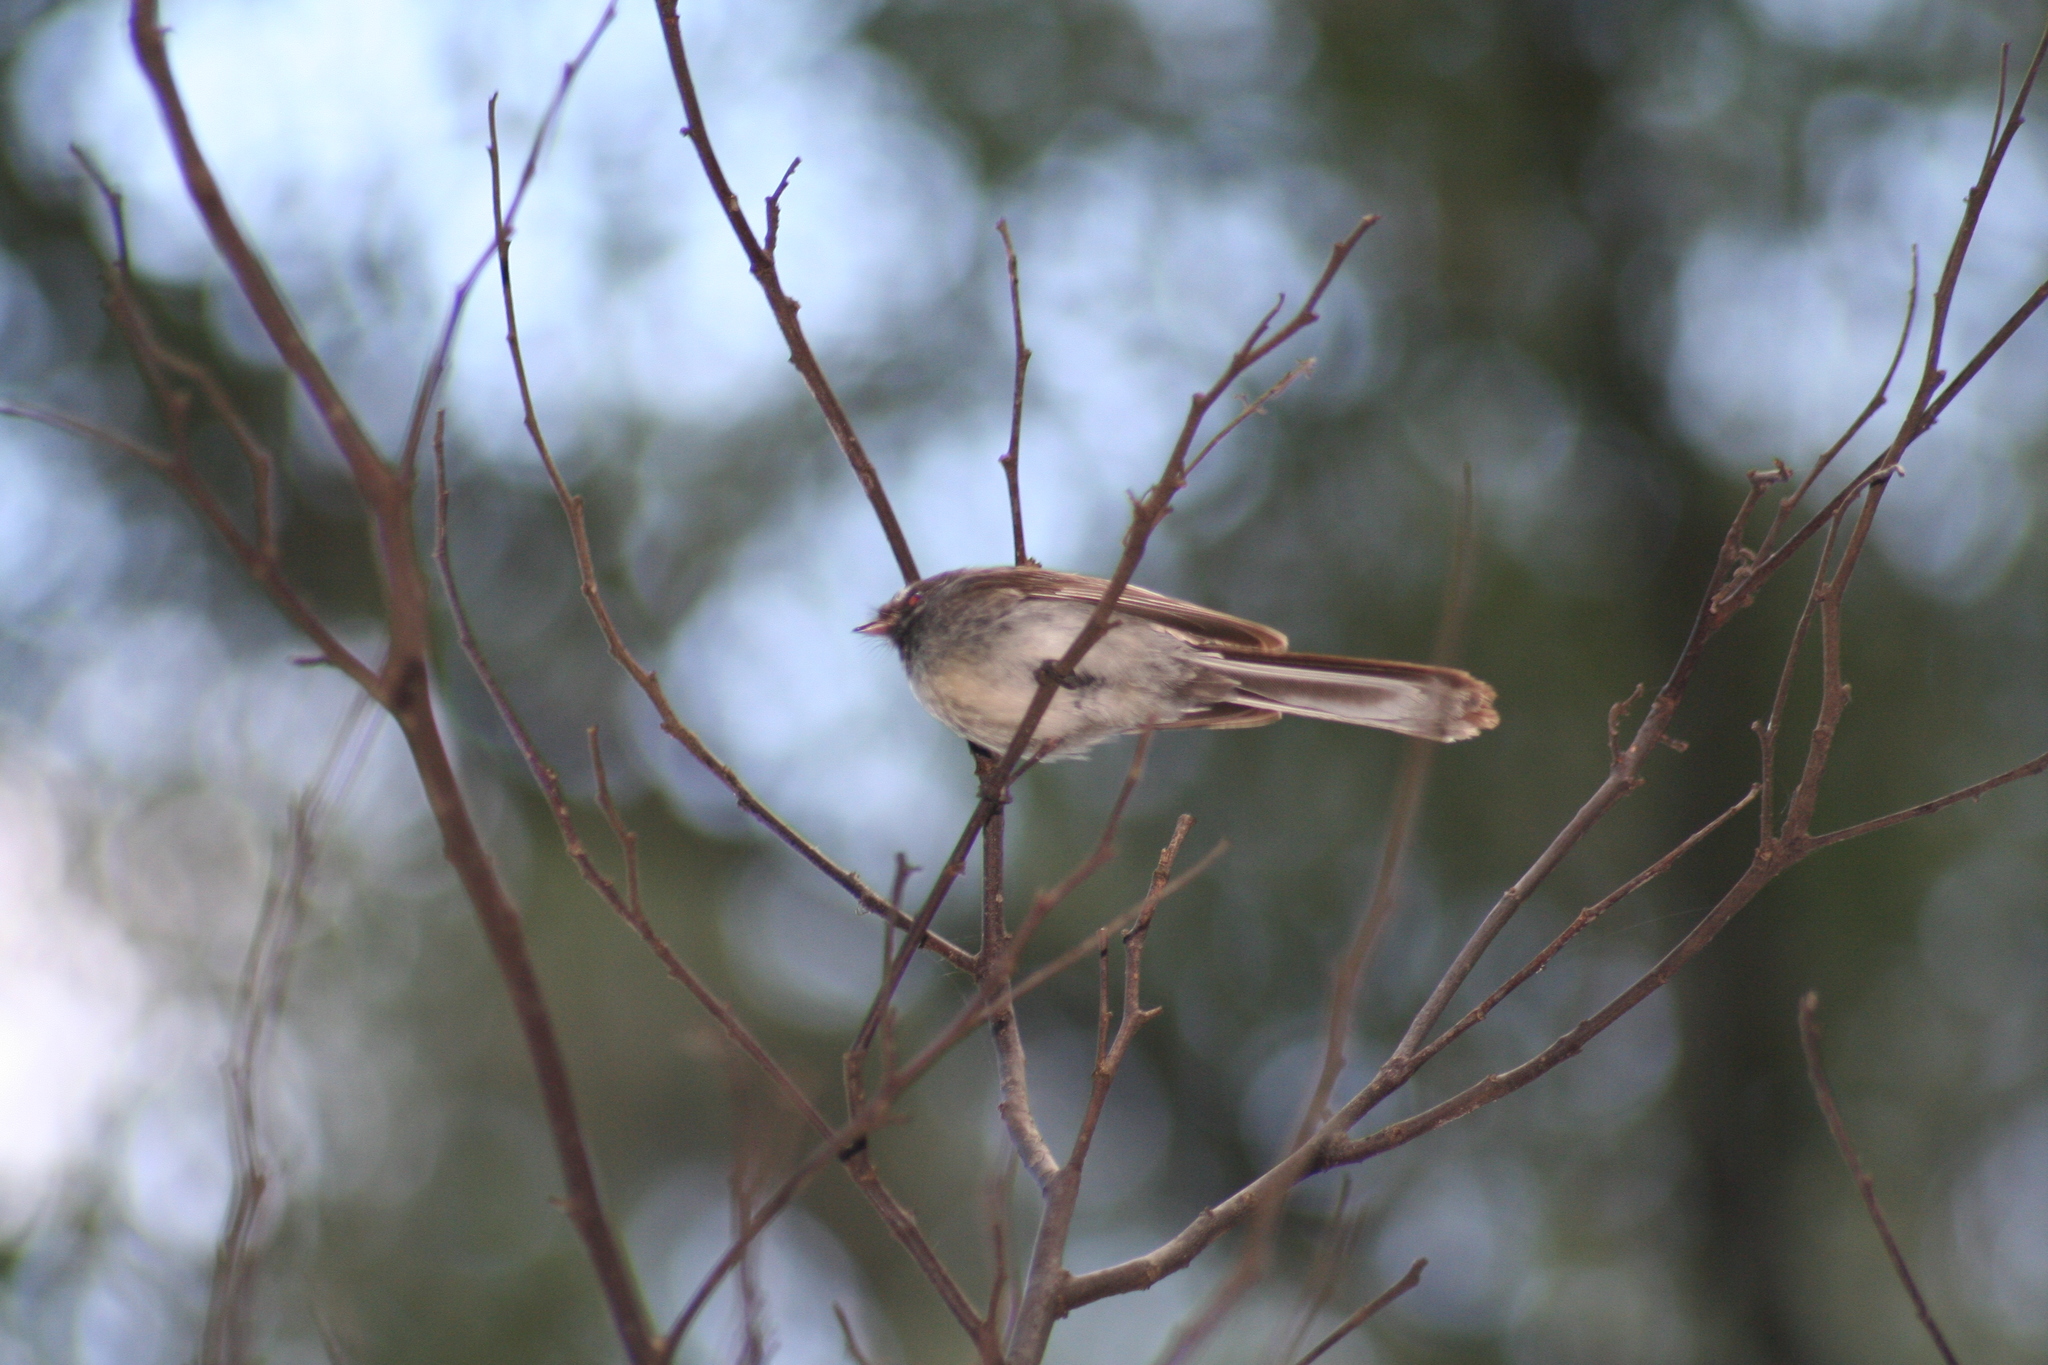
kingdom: Animalia
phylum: Chordata
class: Aves
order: Passeriformes
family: Rhipiduridae
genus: Rhipidura
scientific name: Rhipidura albiscapa
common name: Grey fantail
